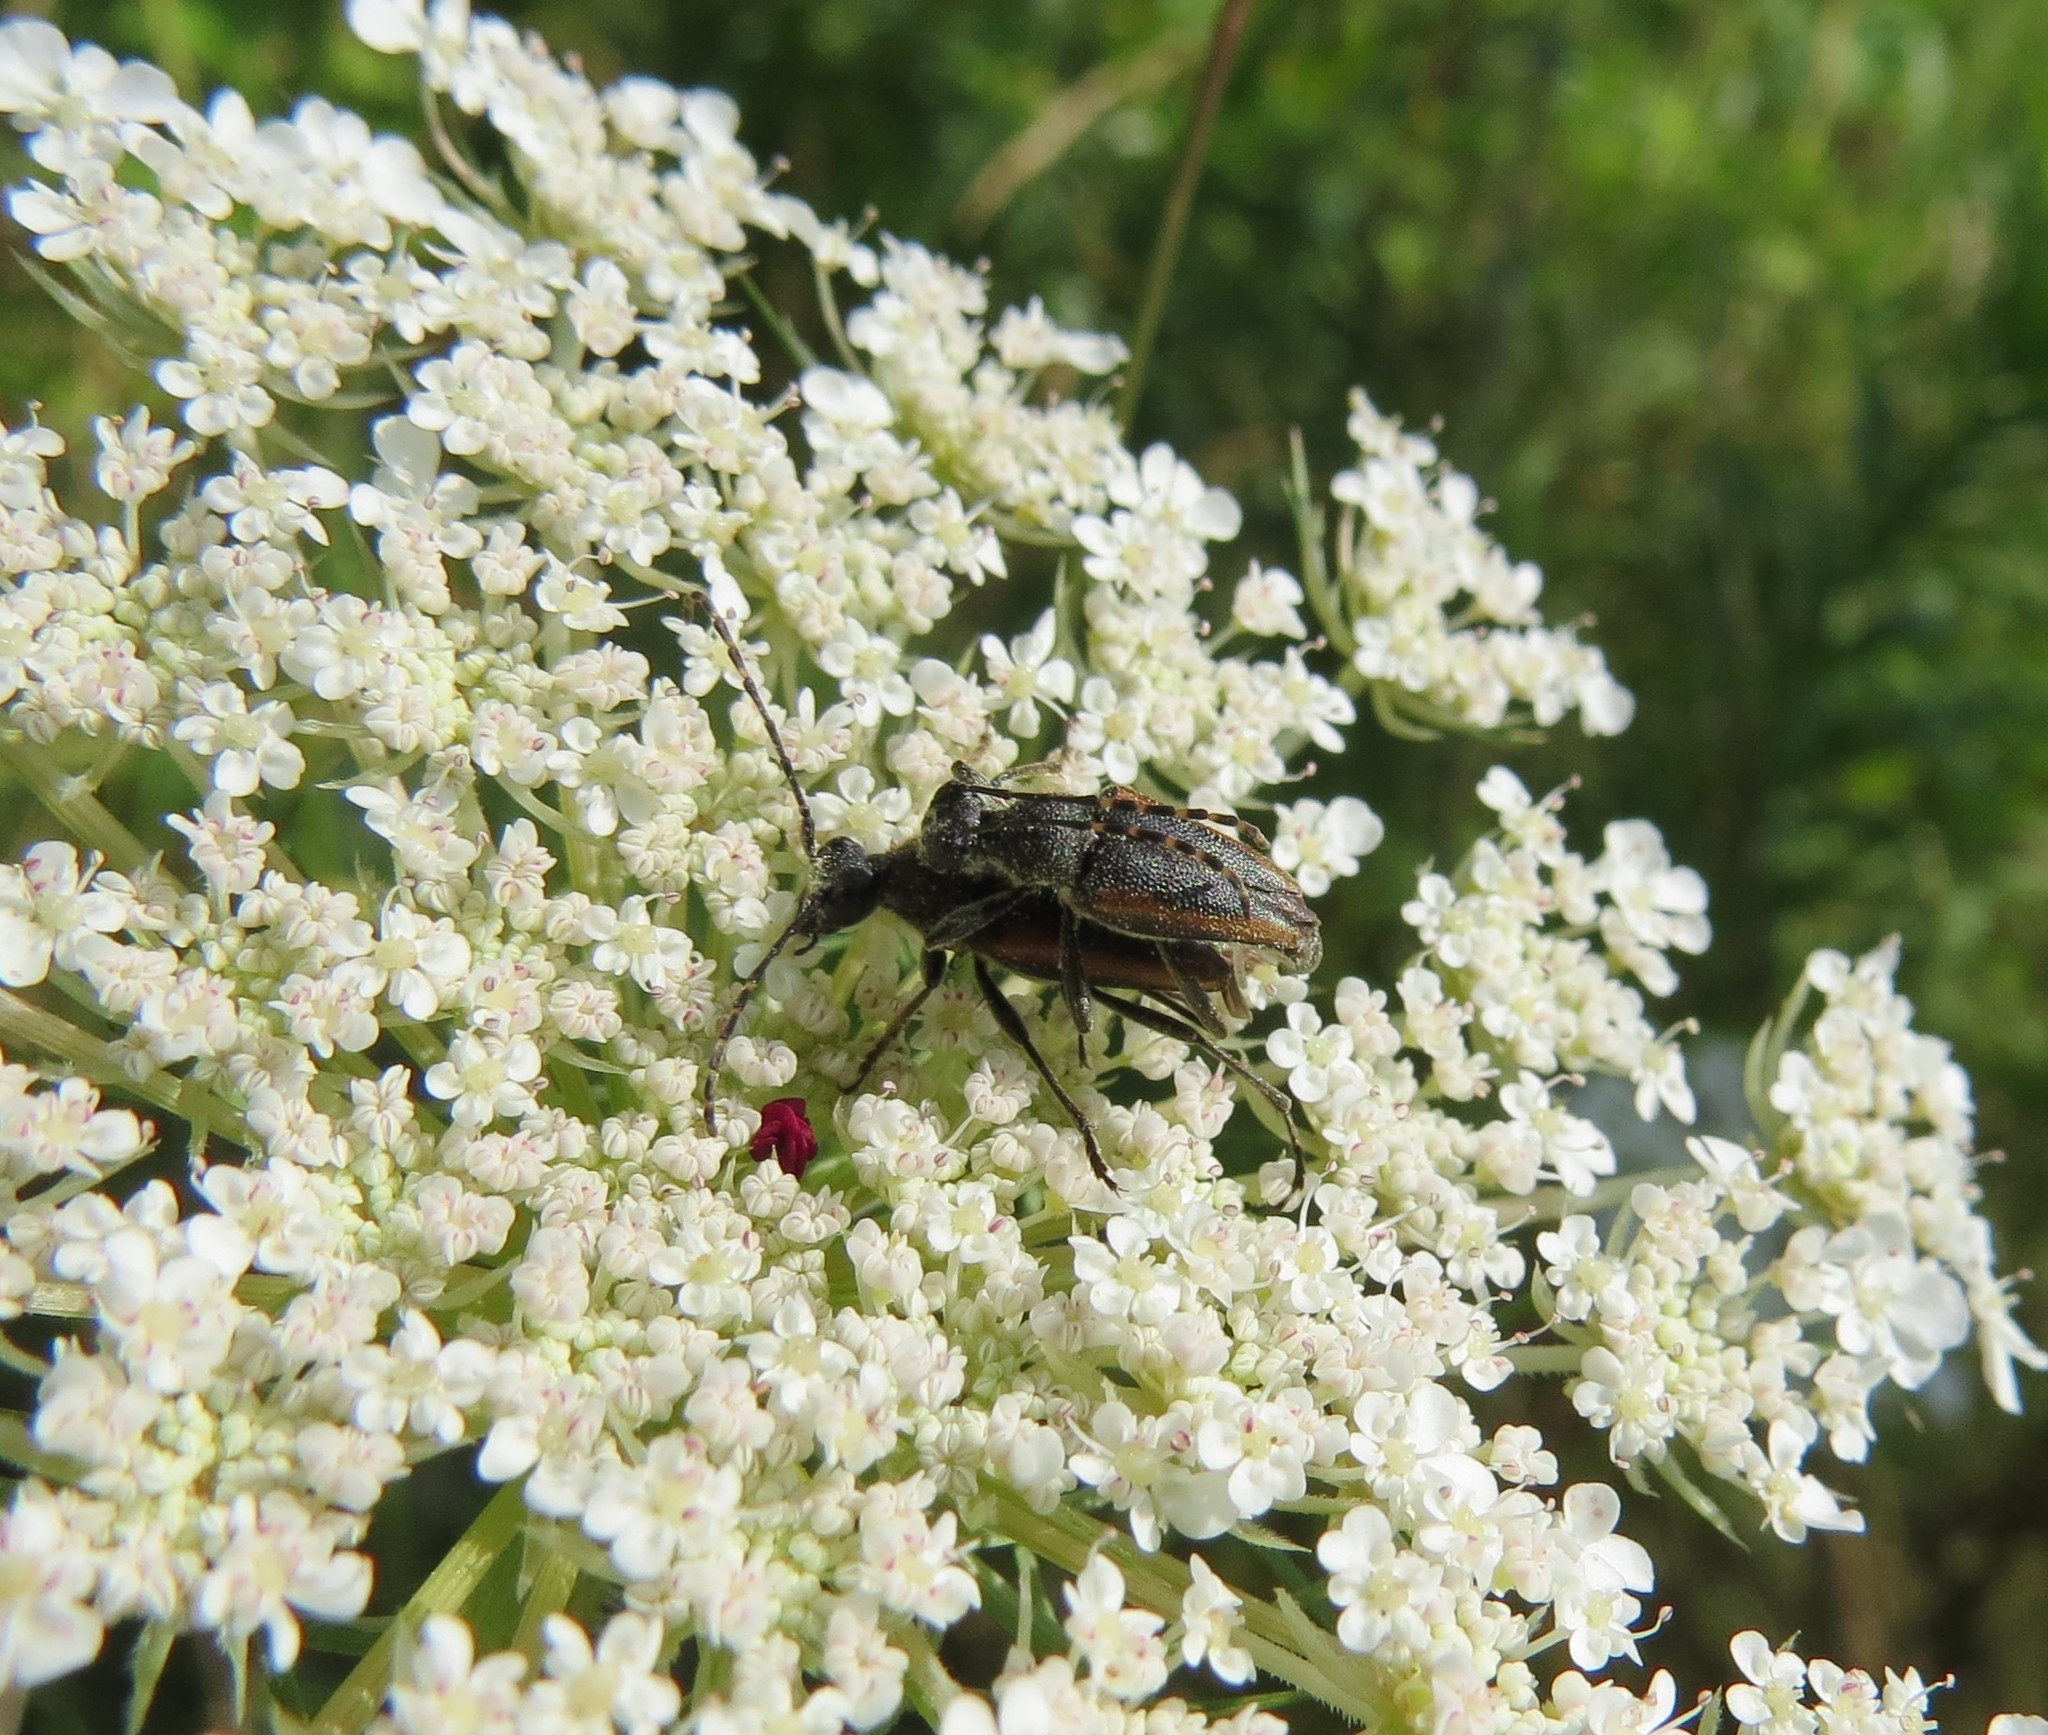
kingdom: Animalia
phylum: Arthropoda
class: Insecta
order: Coleoptera
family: Cerambycidae
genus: Brachyleptura
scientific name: Brachyleptura vagans
